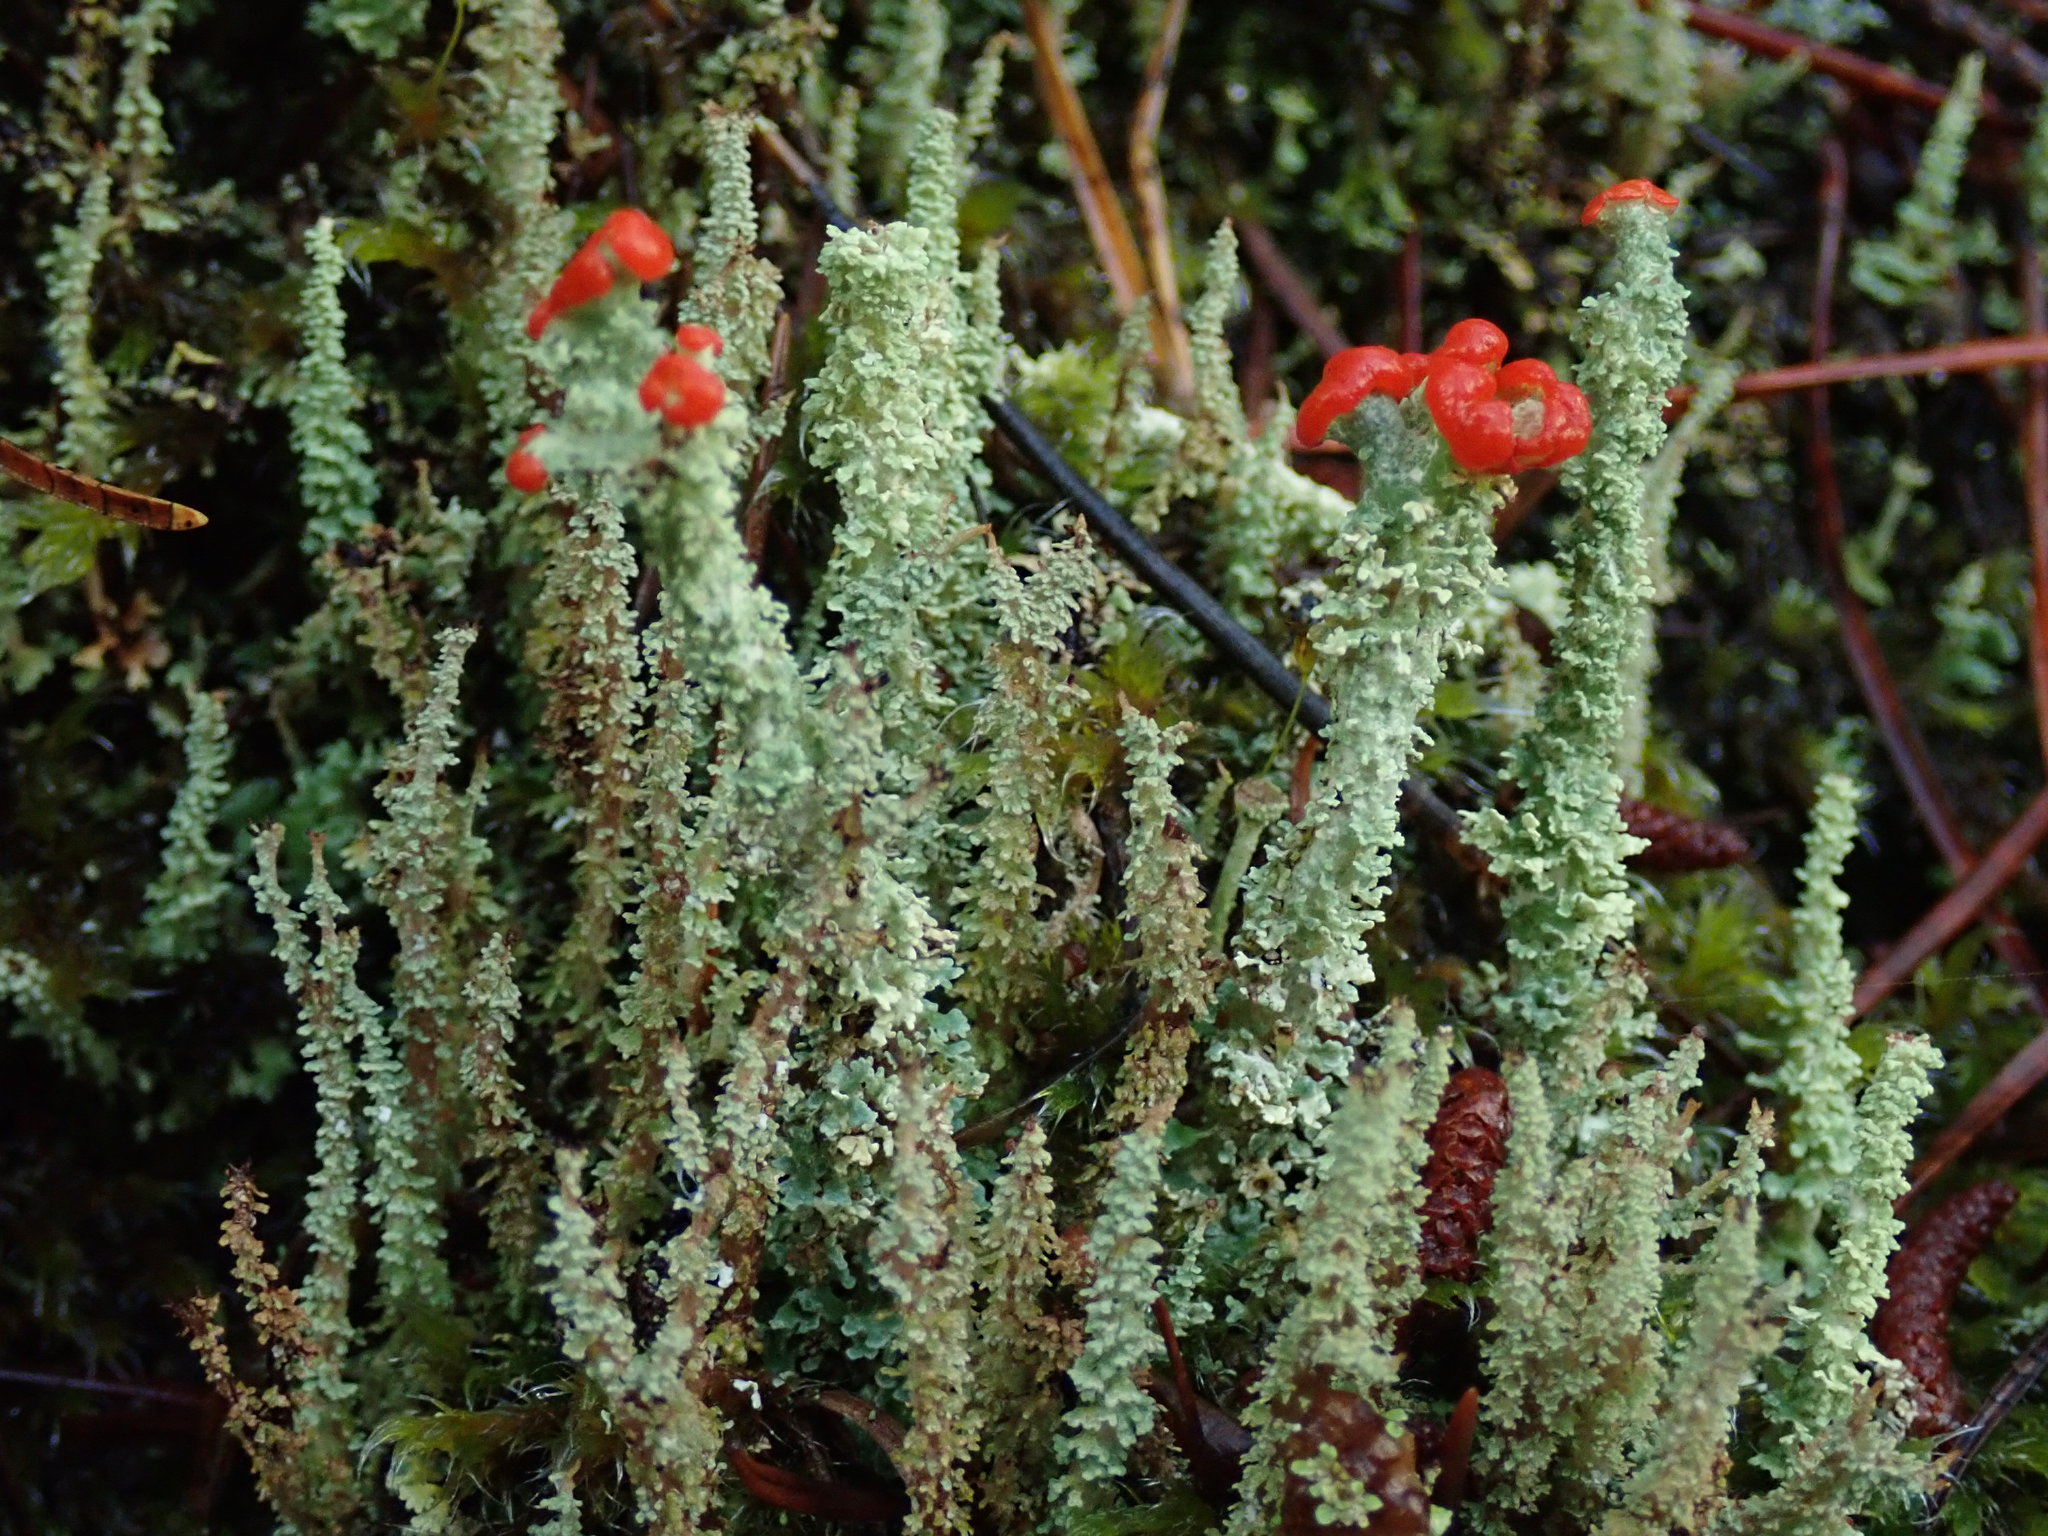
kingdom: Fungi
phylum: Ascomycota
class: Lecanoromycetes
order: Lecanorales
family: Cladoniaceae
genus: Cladonia
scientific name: Cladonia bellidiflora
